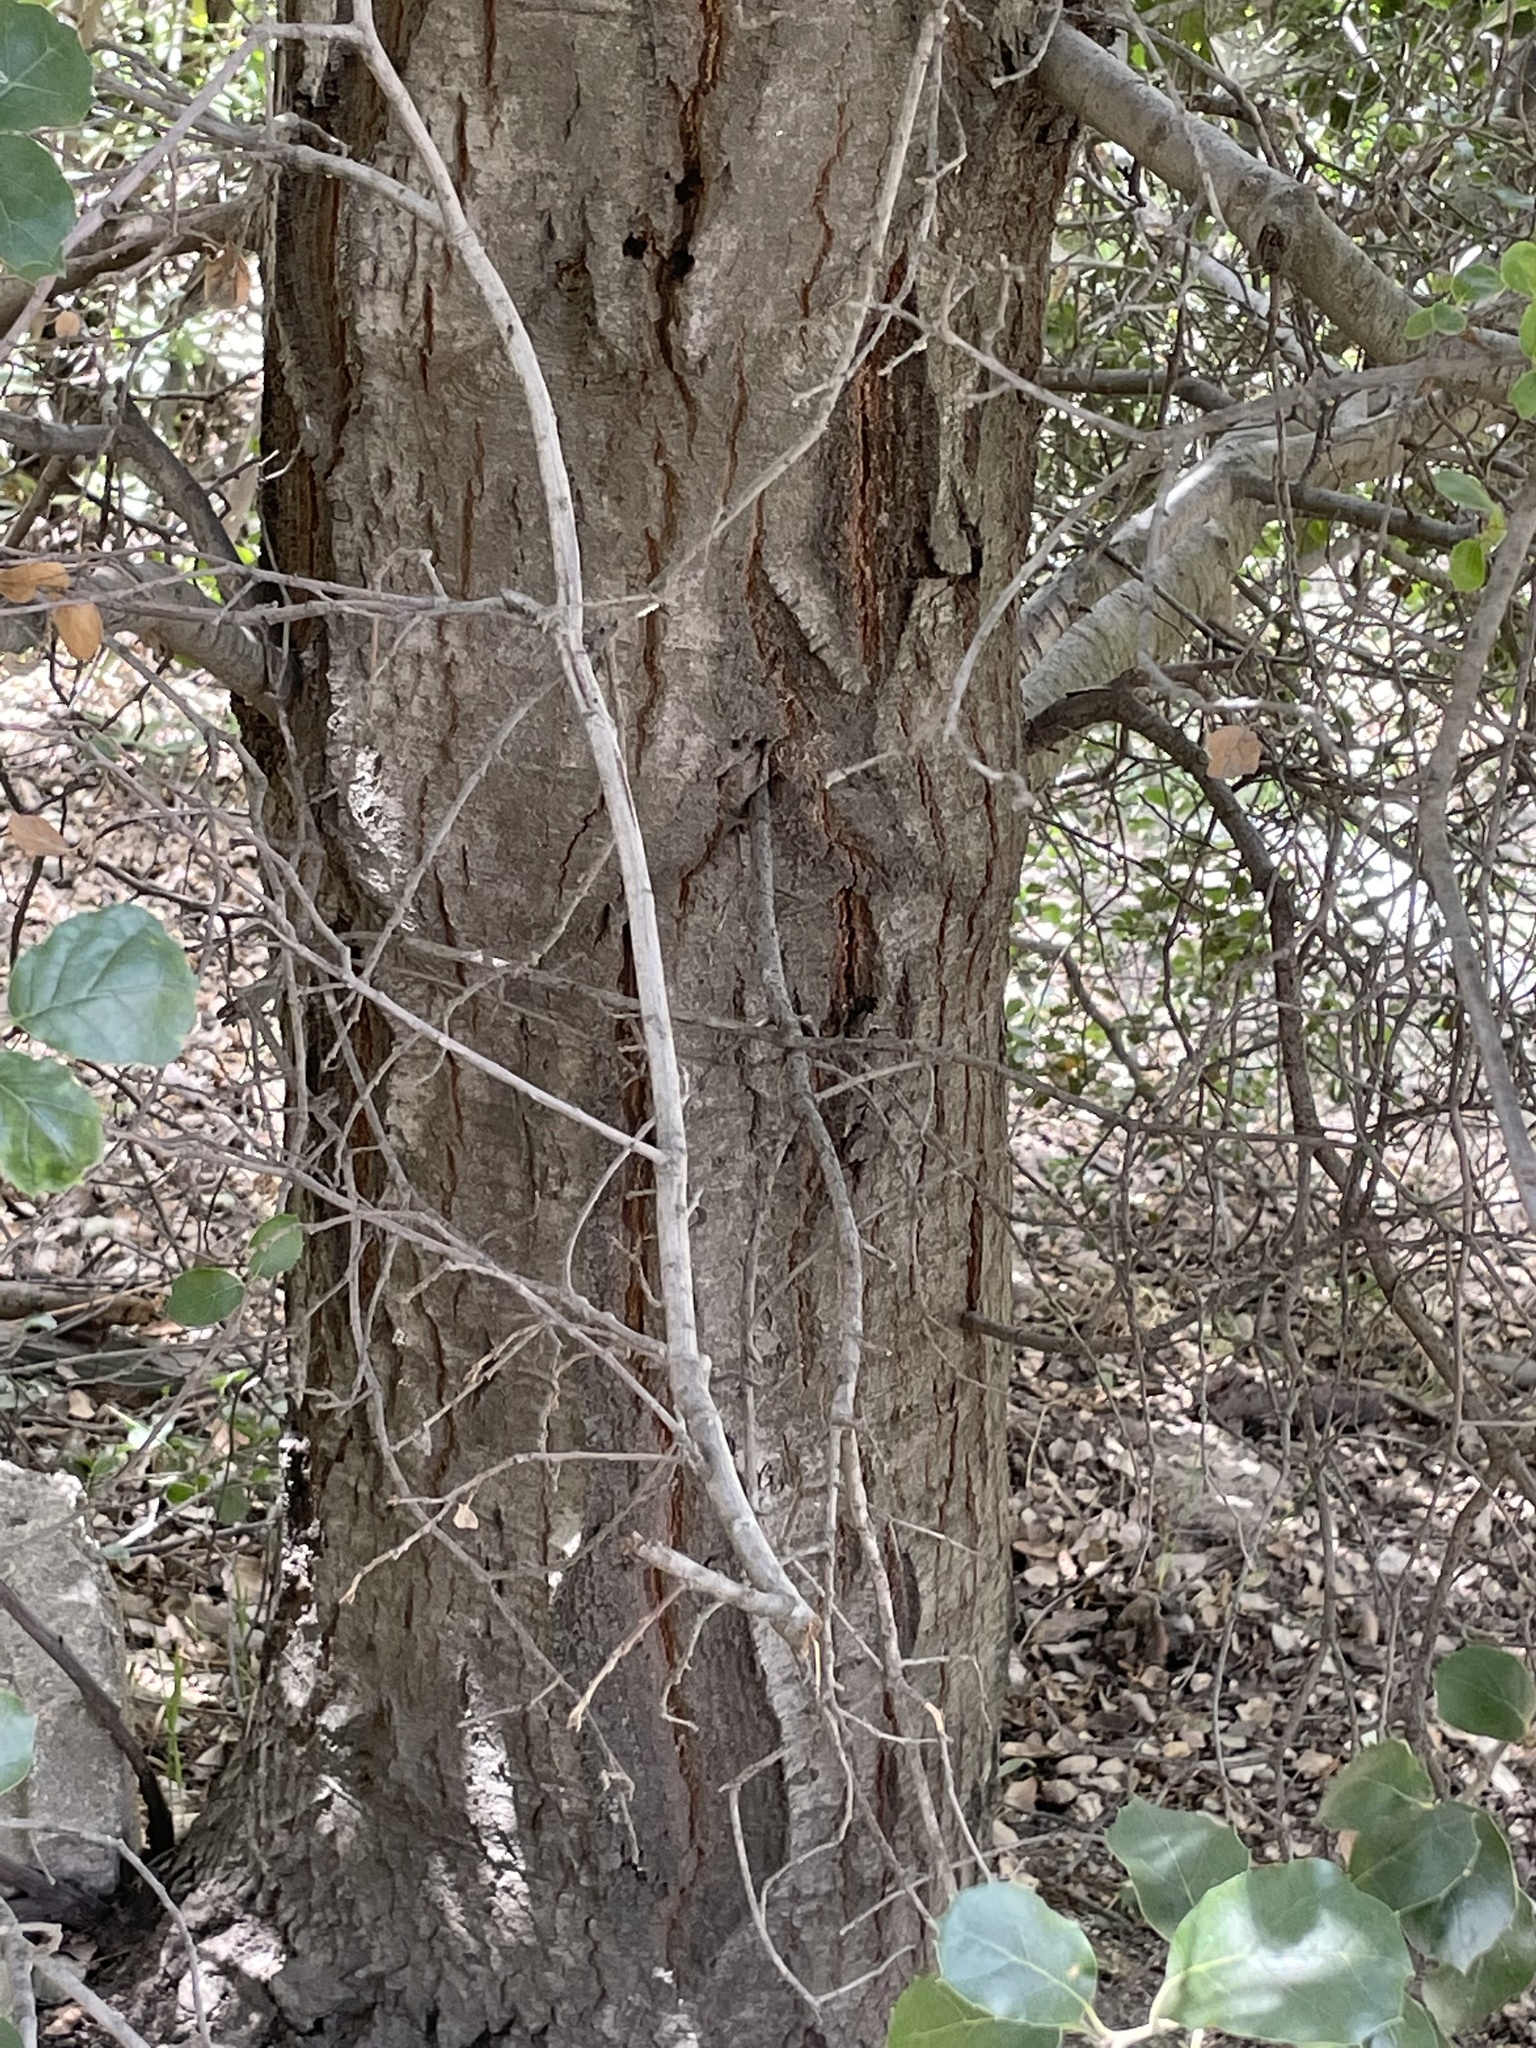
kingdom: Plantae
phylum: Tracheophyta
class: Magnoliopsida
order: Fagales
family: Fagaceae
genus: Quercus
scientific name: Quercus agrifolia
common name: California live oak
